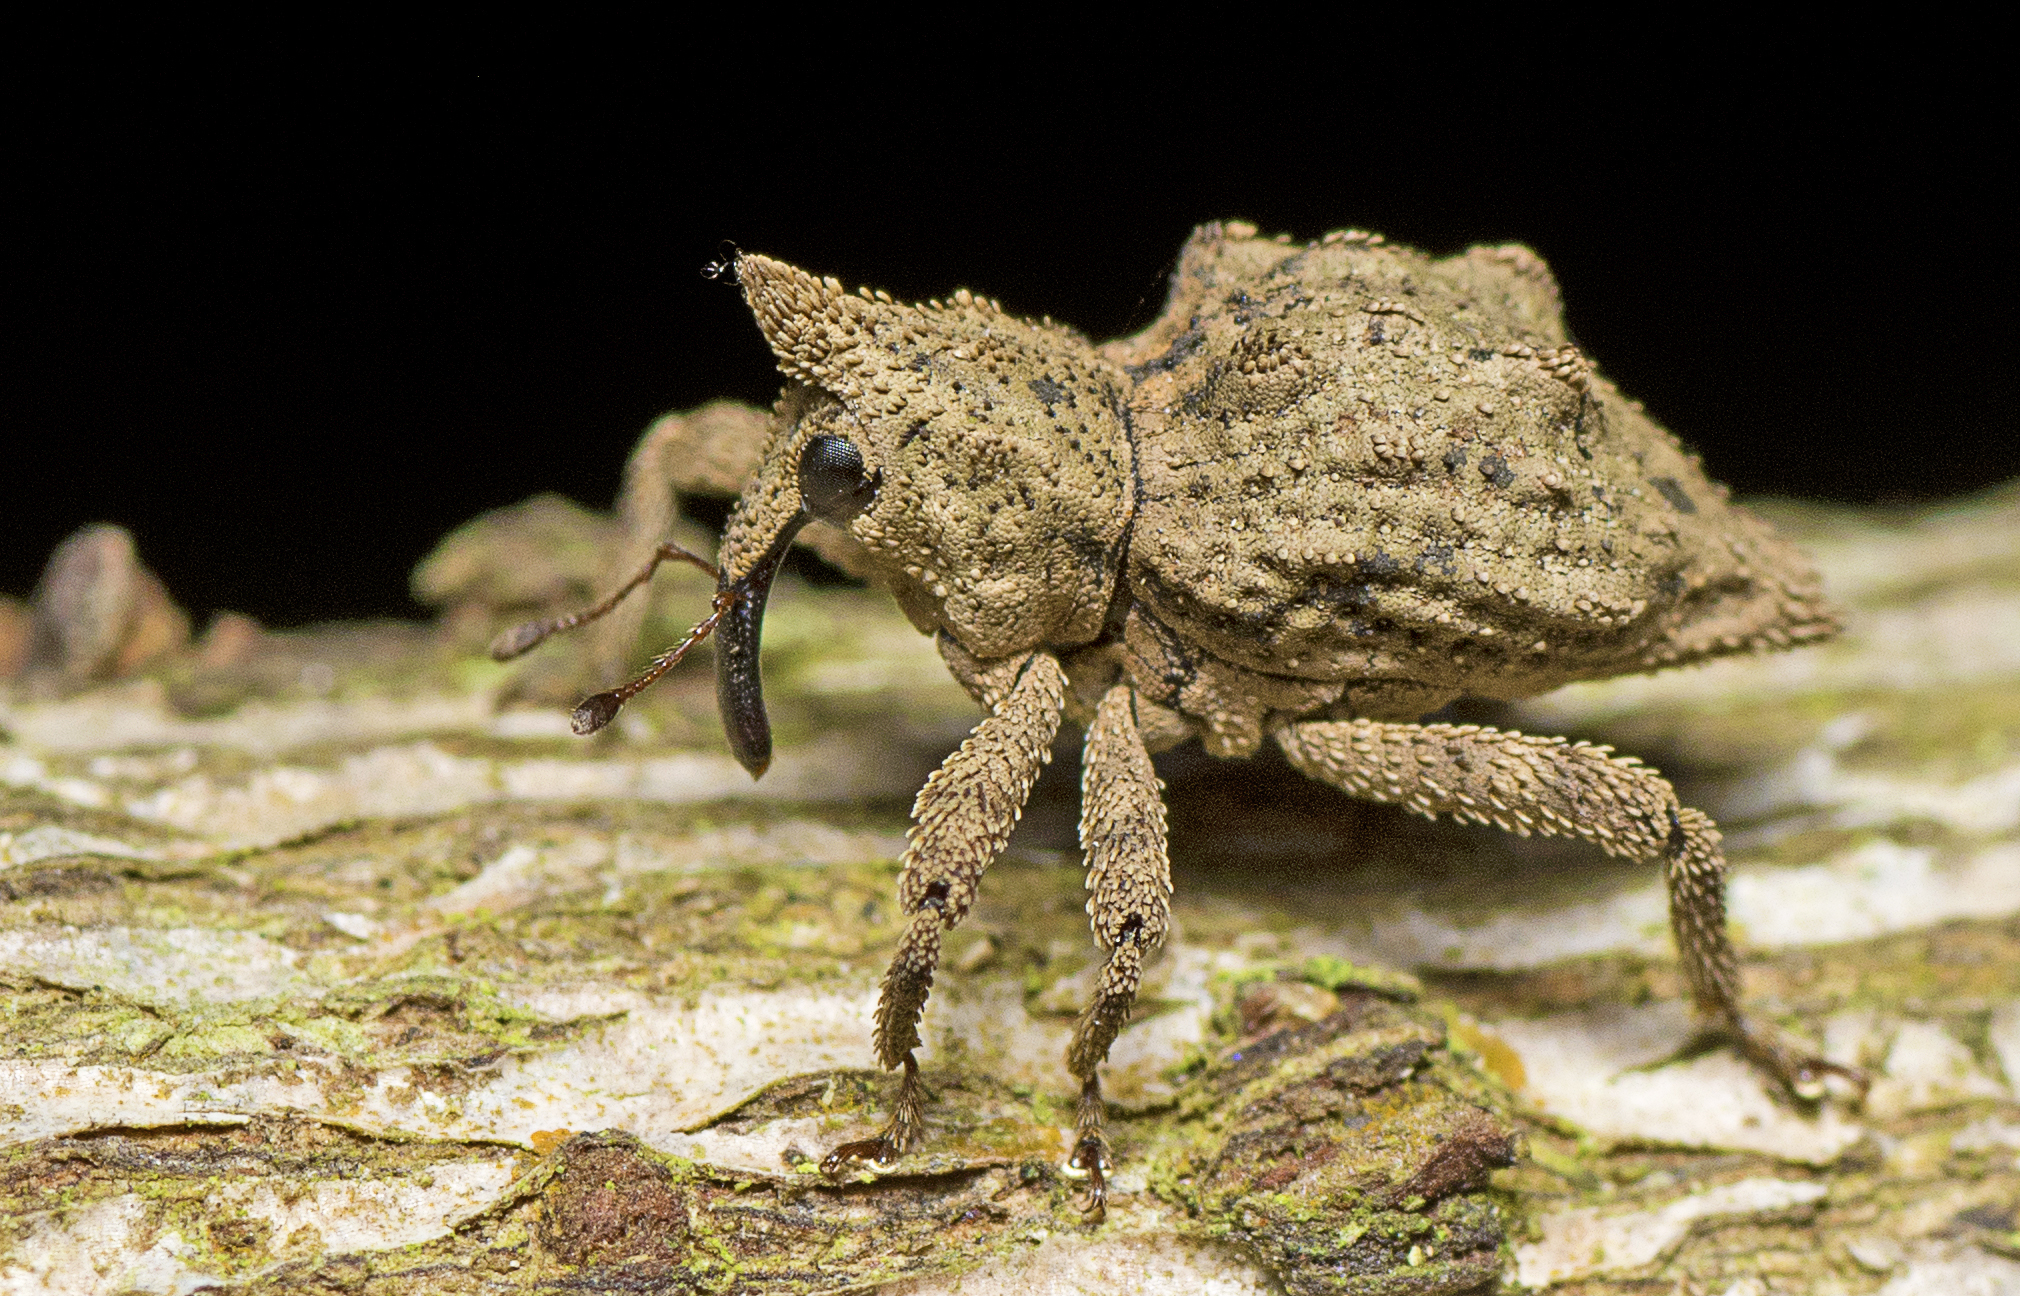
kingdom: Animalia
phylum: Arthropoda
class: Insecta
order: Coleoptera
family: Curculionidae
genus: Ouroporopterus
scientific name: Ouroporopterus squamiventris
